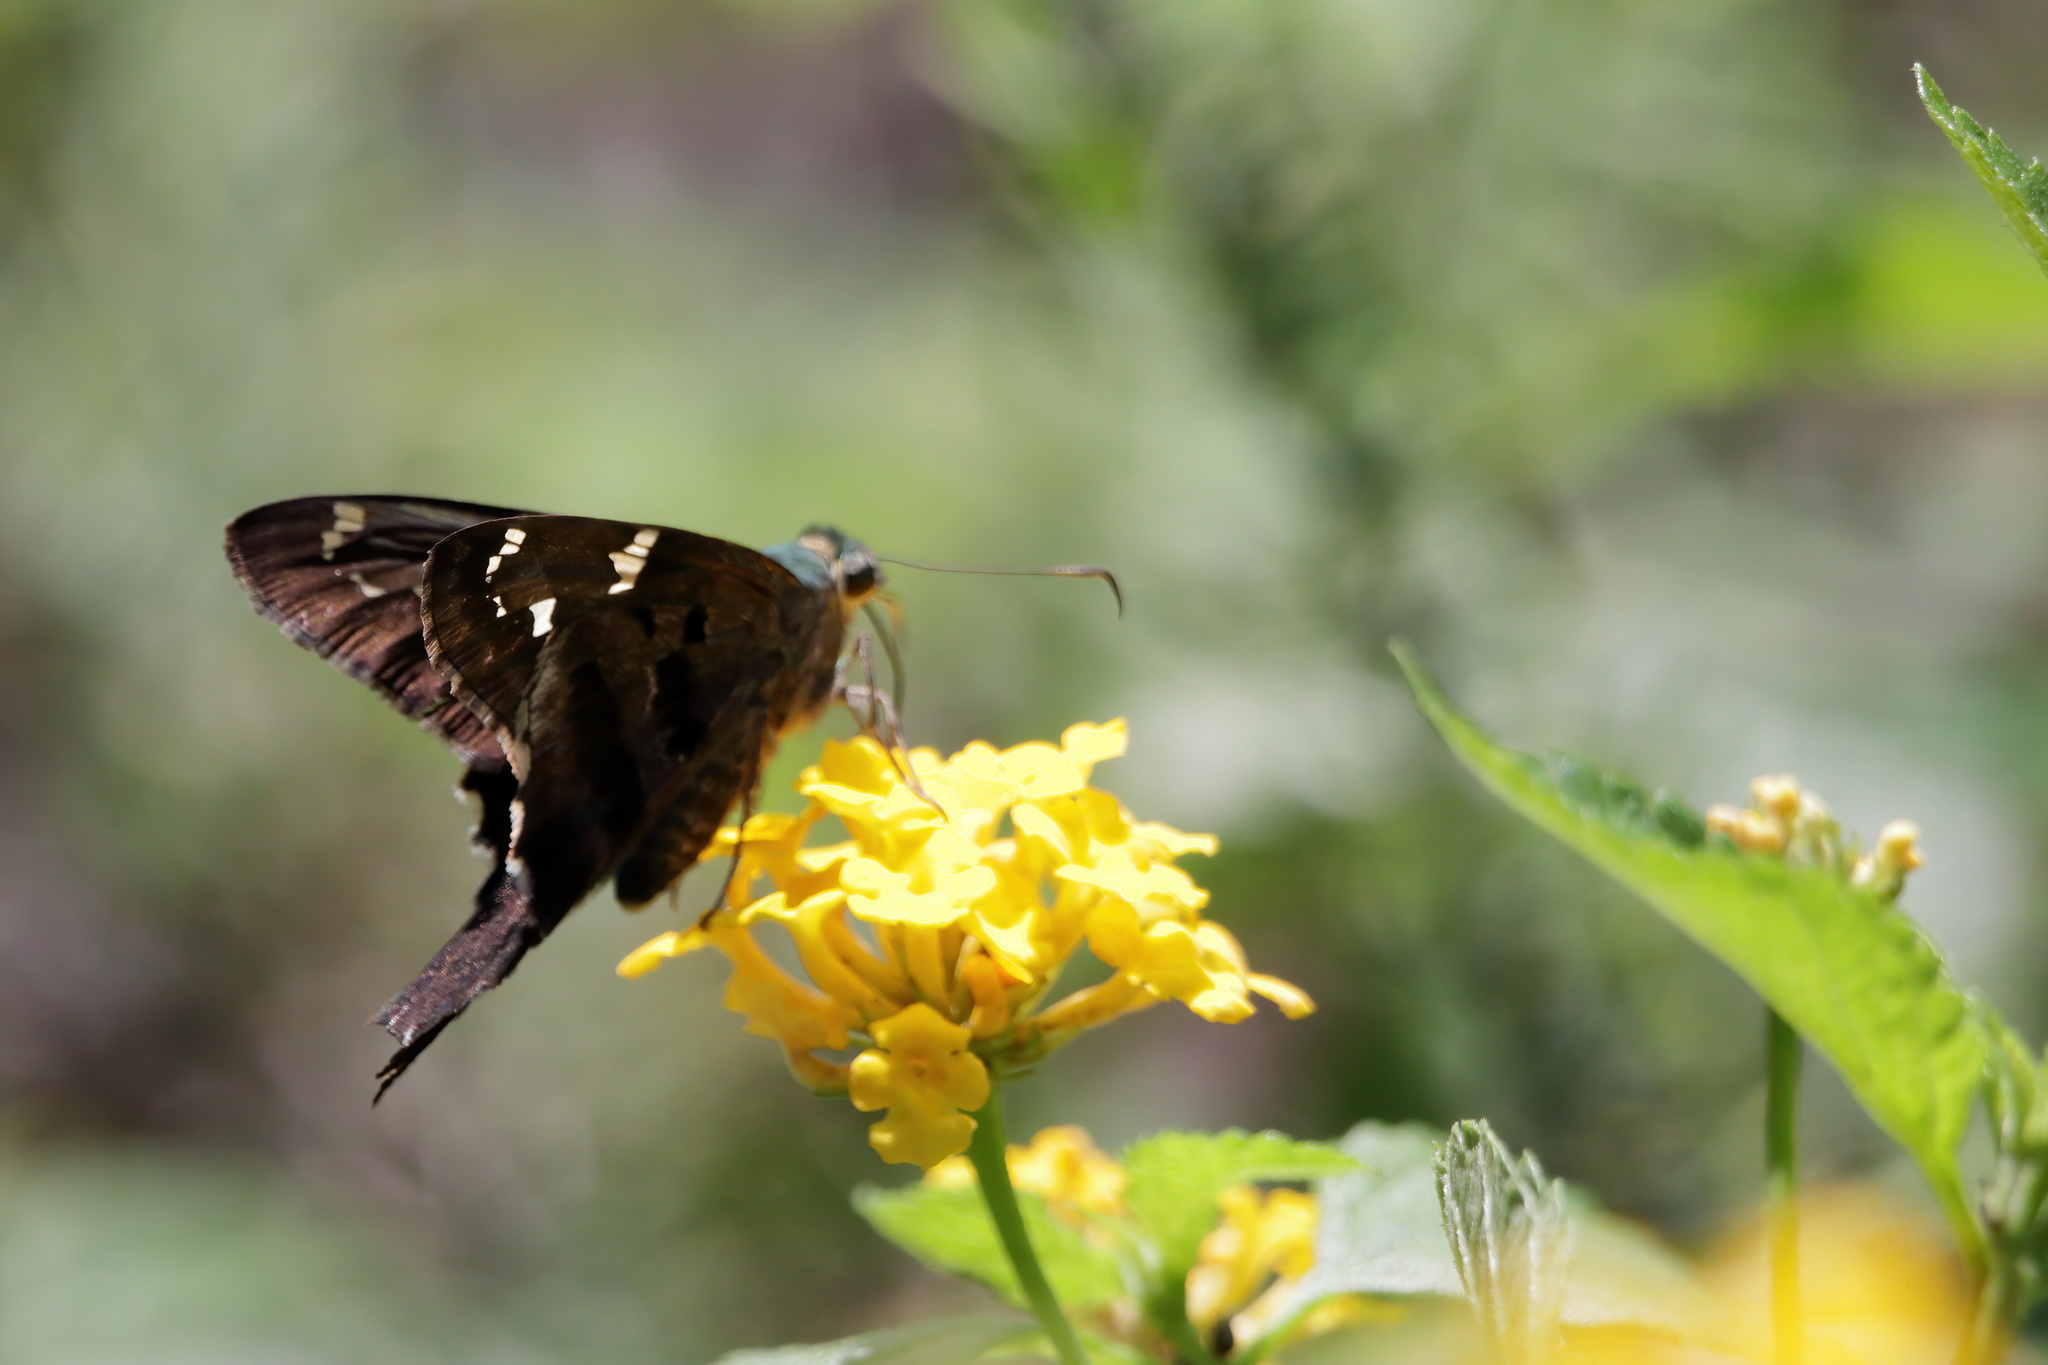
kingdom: Animalia
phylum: Arthropoda
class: Insecta
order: Lepidoptera
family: Hesperiidae
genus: Urbanus
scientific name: Urbanus proteus
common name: Long-tailed skipper
